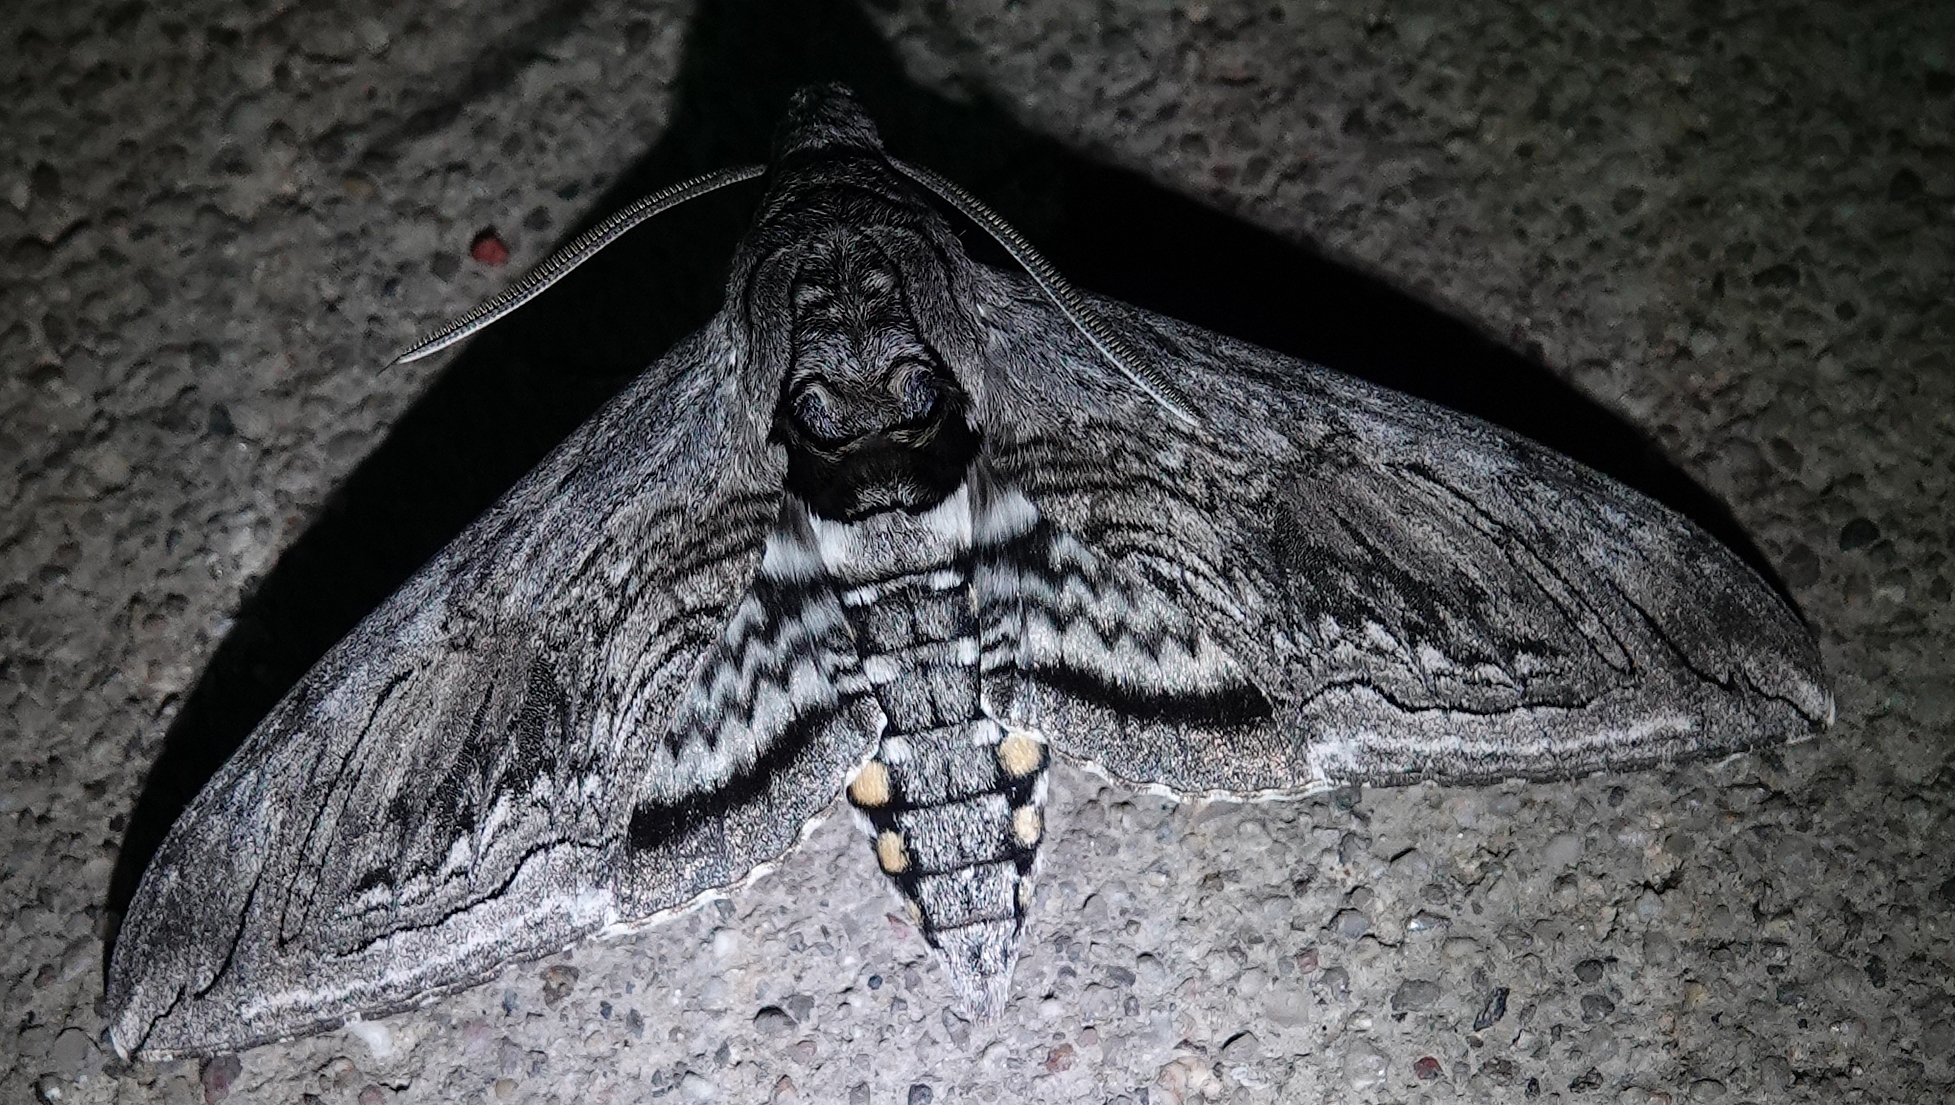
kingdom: Animalia
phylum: Arthropoda
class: Insecta
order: Lepidoptera
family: Sphingidae
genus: Manduca
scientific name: Manduca quinquemaculatus
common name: Five-spotted hawk-moth
